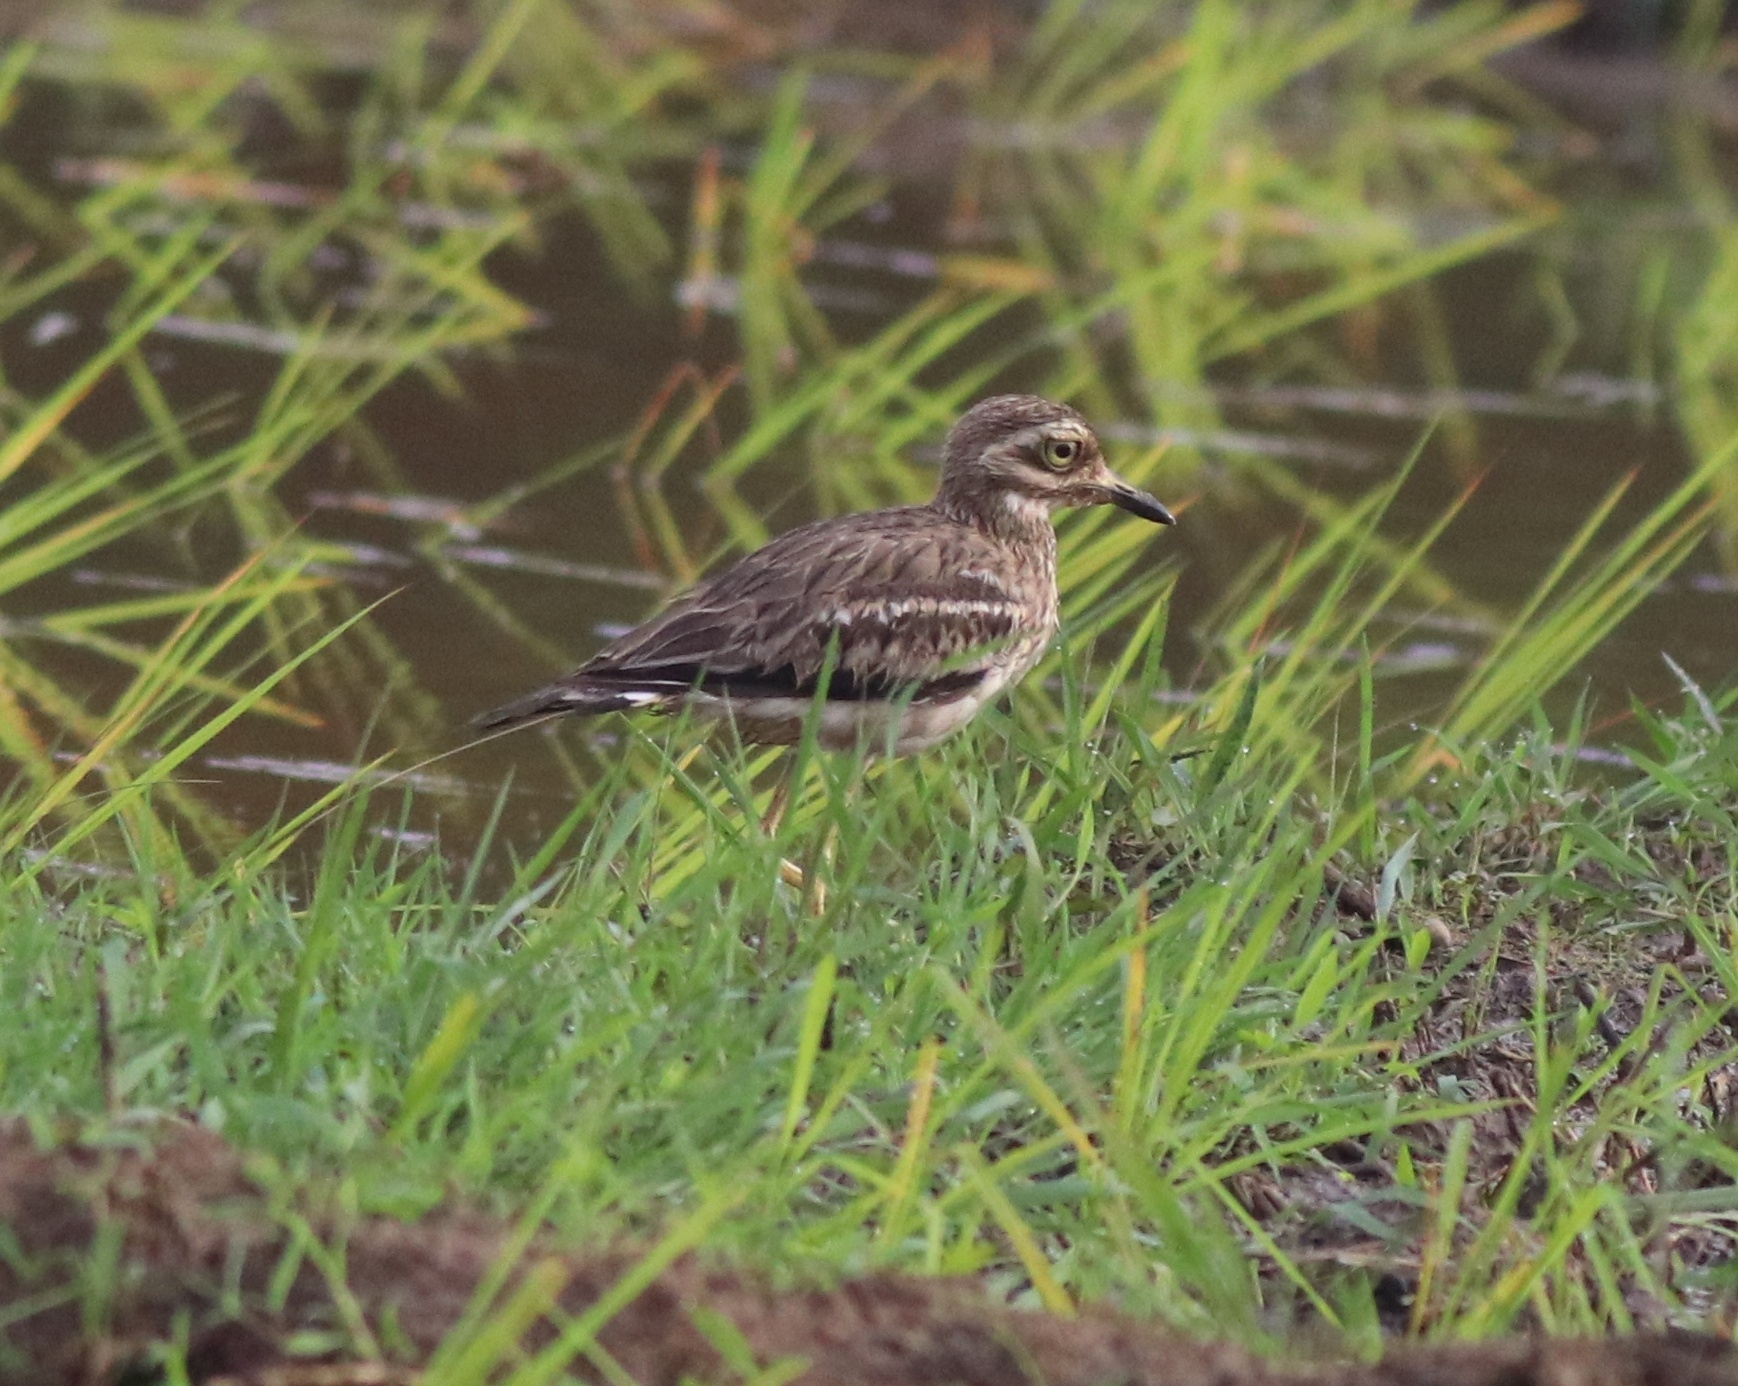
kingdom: Animalia
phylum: Chordata
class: Aves
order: Charadriiformes
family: Burhinidae
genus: Burhinus
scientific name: Burhinus indicus
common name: Indian thick-knee
